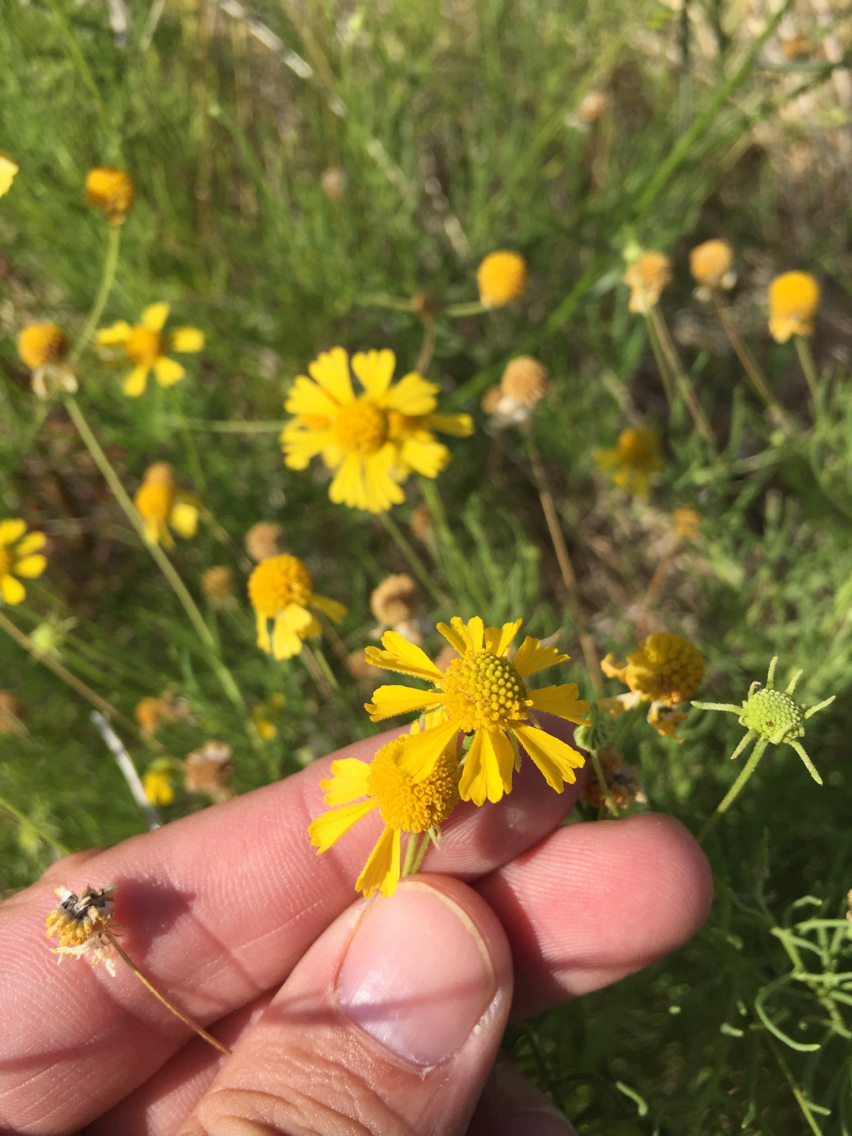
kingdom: Plantae
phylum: Tracheophyta
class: Magnoliopsida
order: Asterales
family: Asteraceae
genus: Helenium
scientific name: Helenium amarum
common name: Bitter sneezeweed
